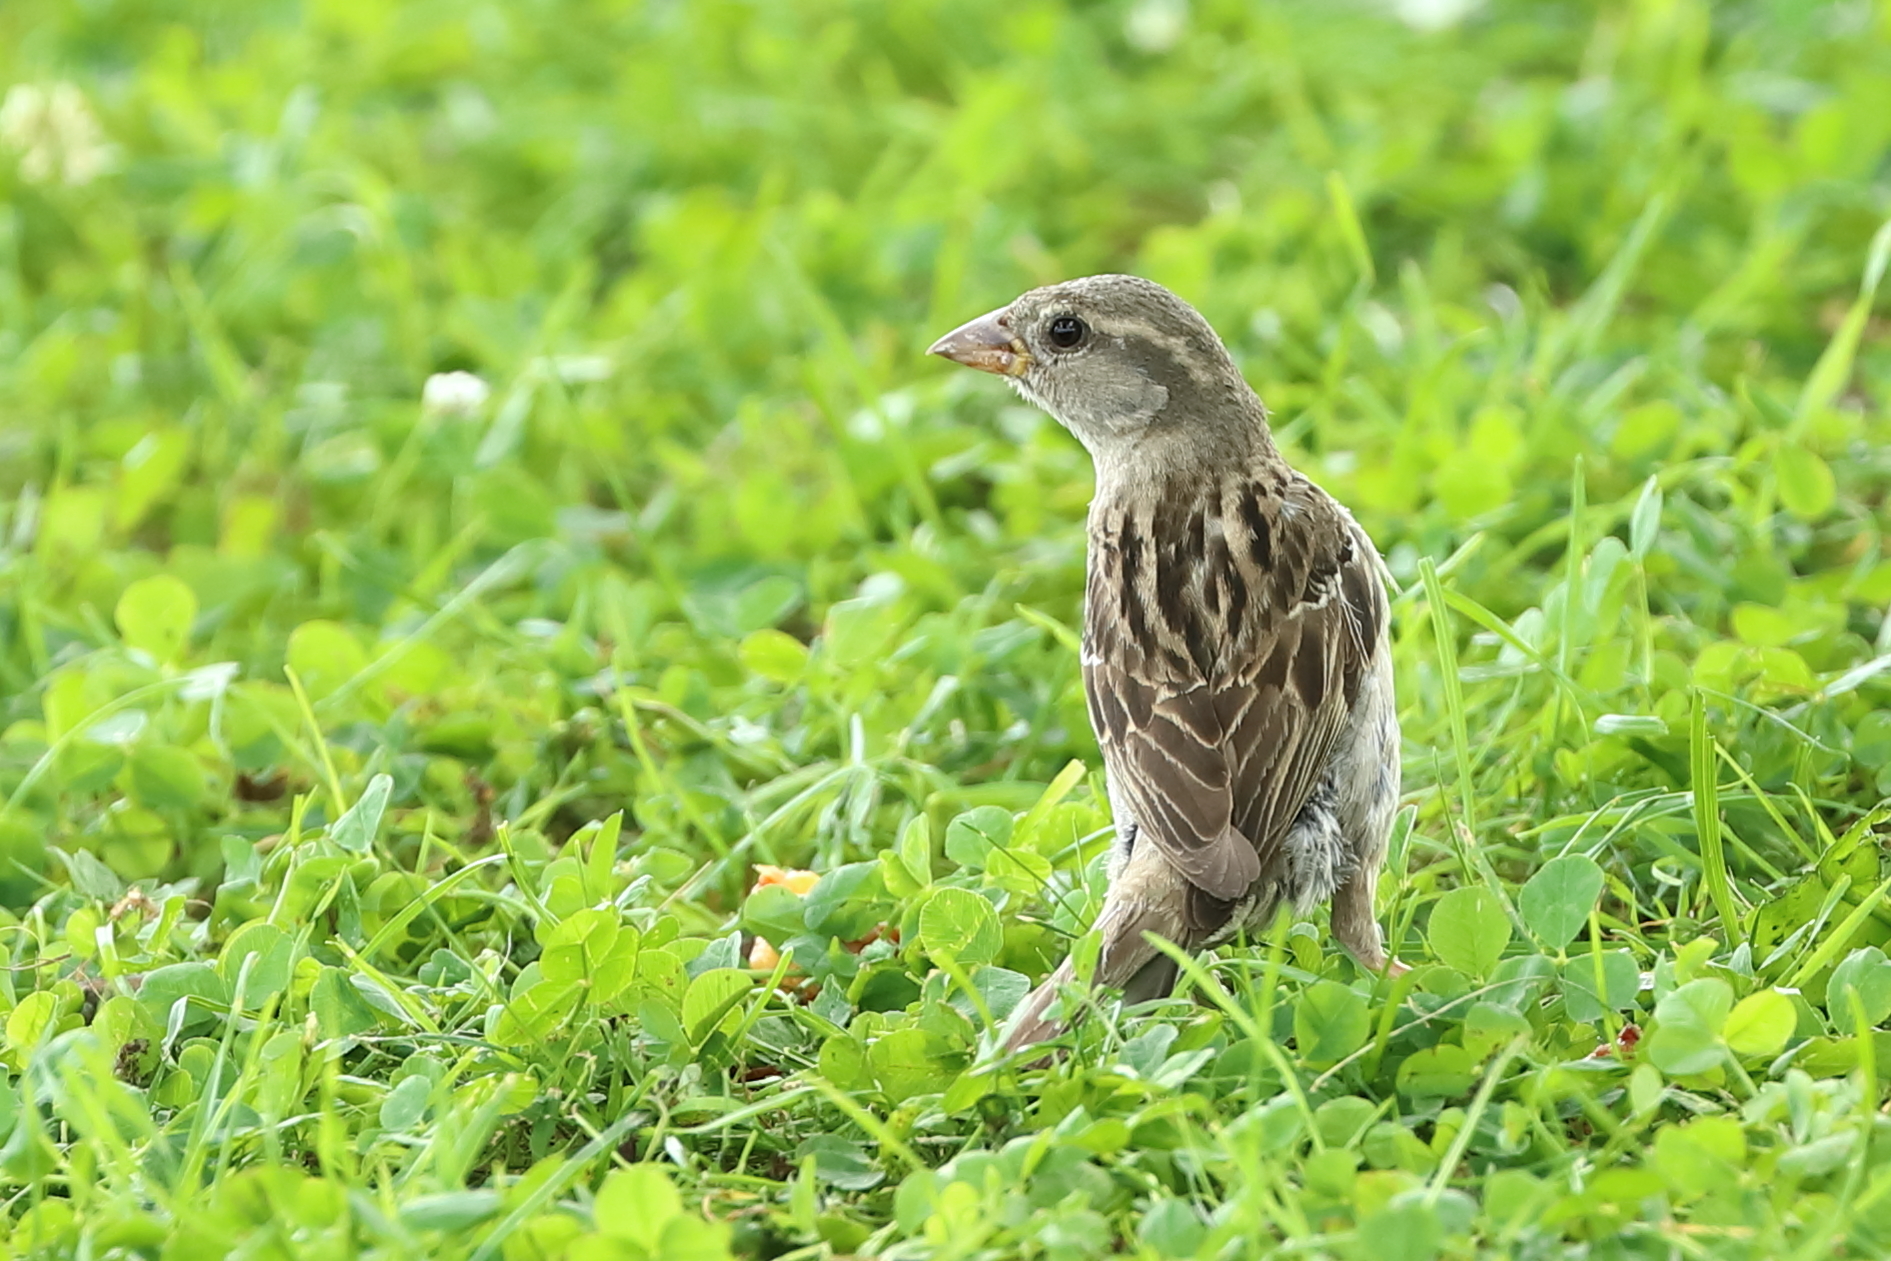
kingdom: Animalia
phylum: Chordata
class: Aves
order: Passeriformes
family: Passeridae
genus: Passer
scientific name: Passer domesticus
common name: House sparrow
